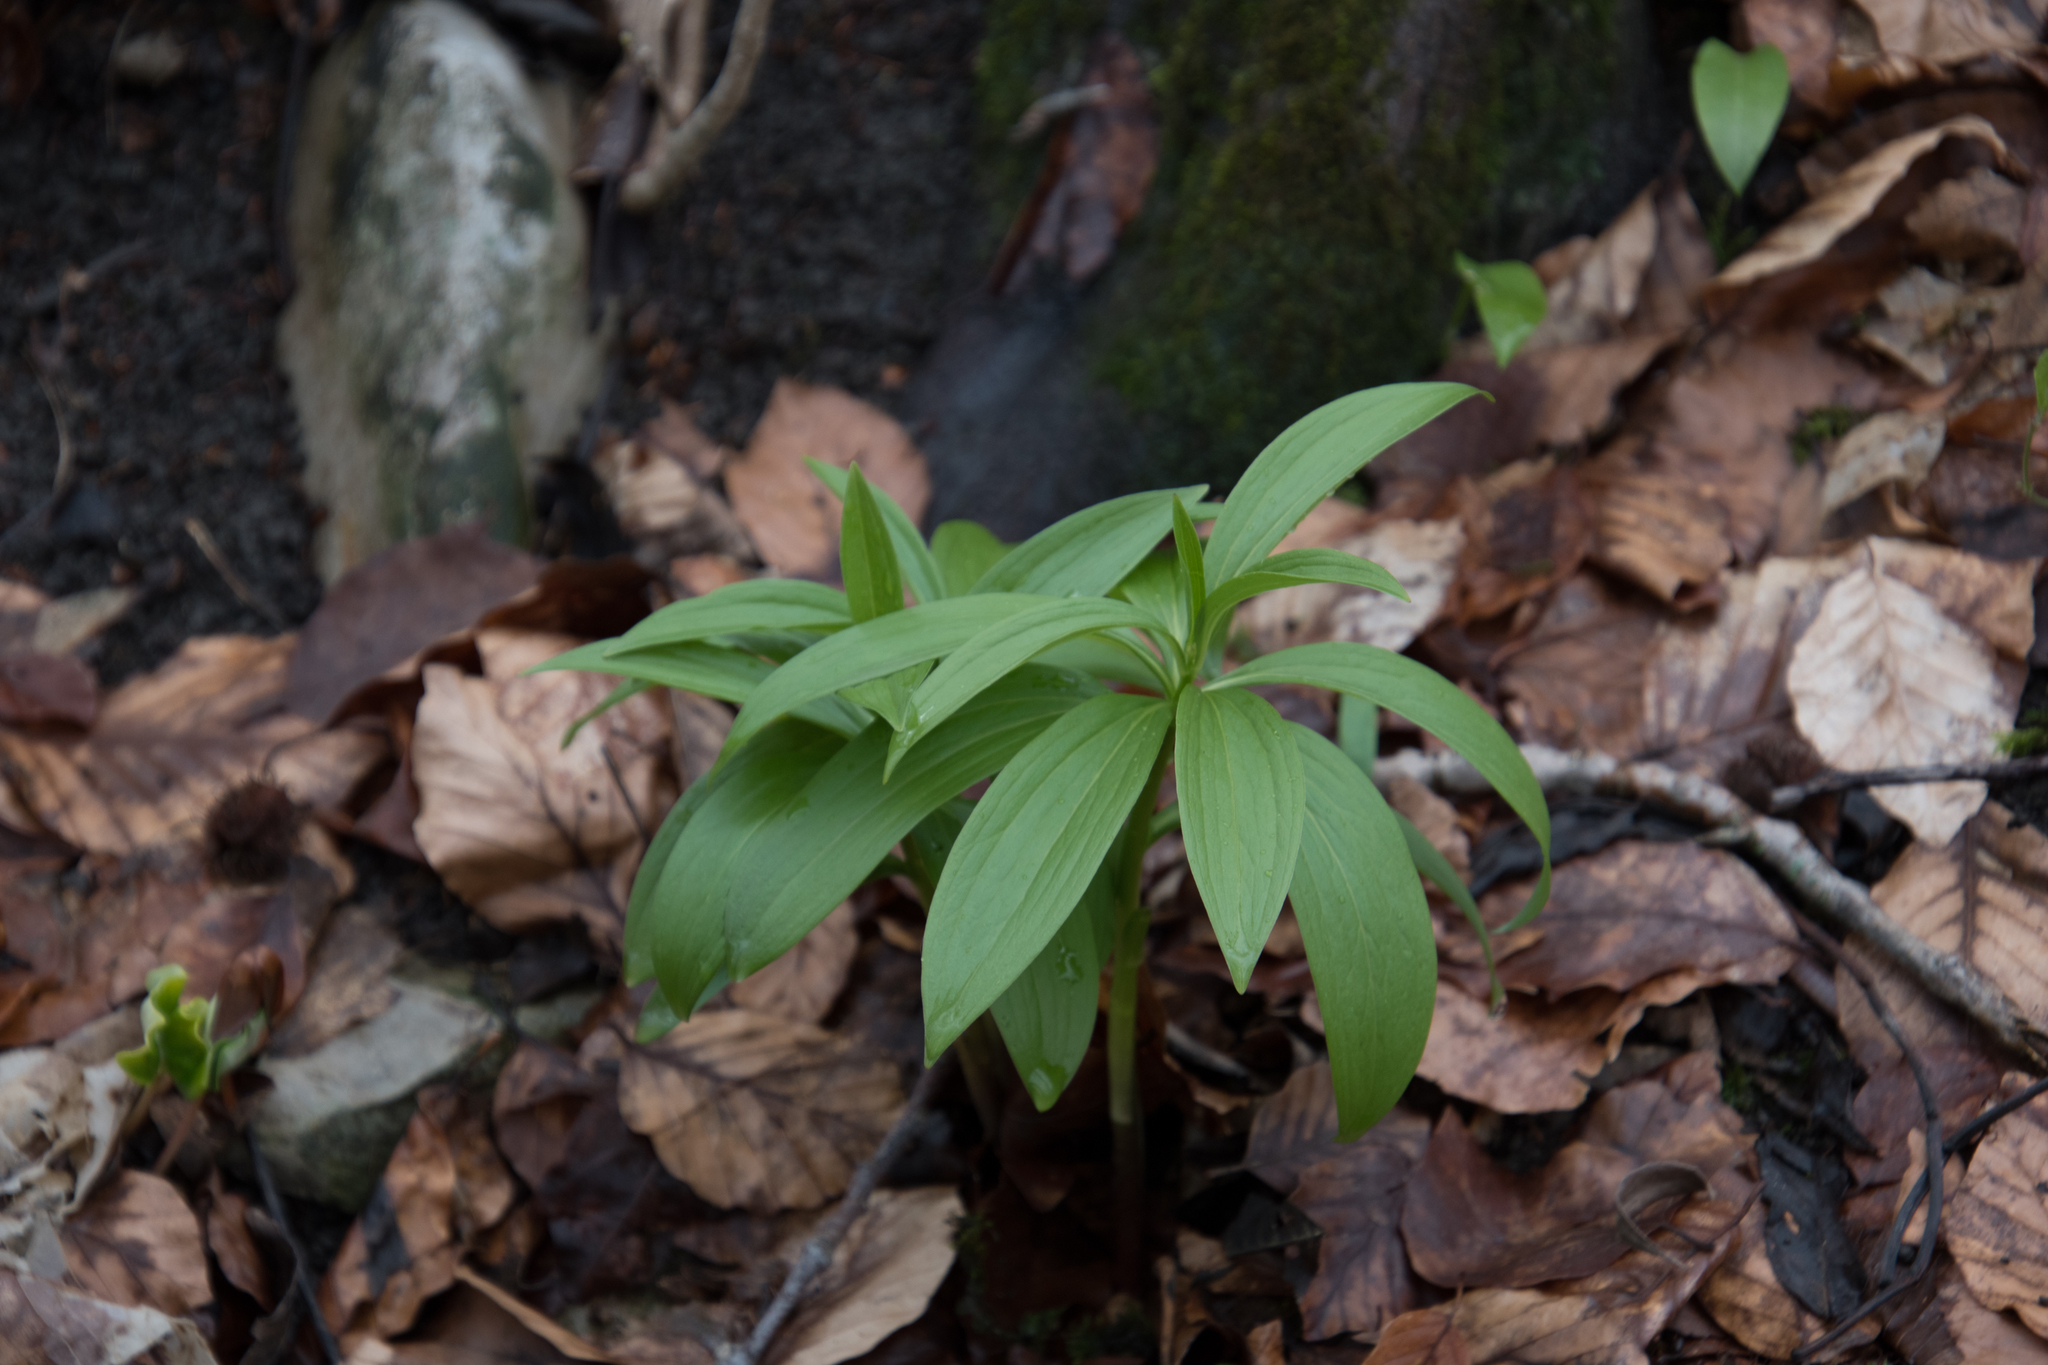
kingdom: Plantae
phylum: Tracheophyta
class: Liliopsida
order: Liliales
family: Liliaceae
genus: Lilium
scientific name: Lilium martagon
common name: Martagon lily
